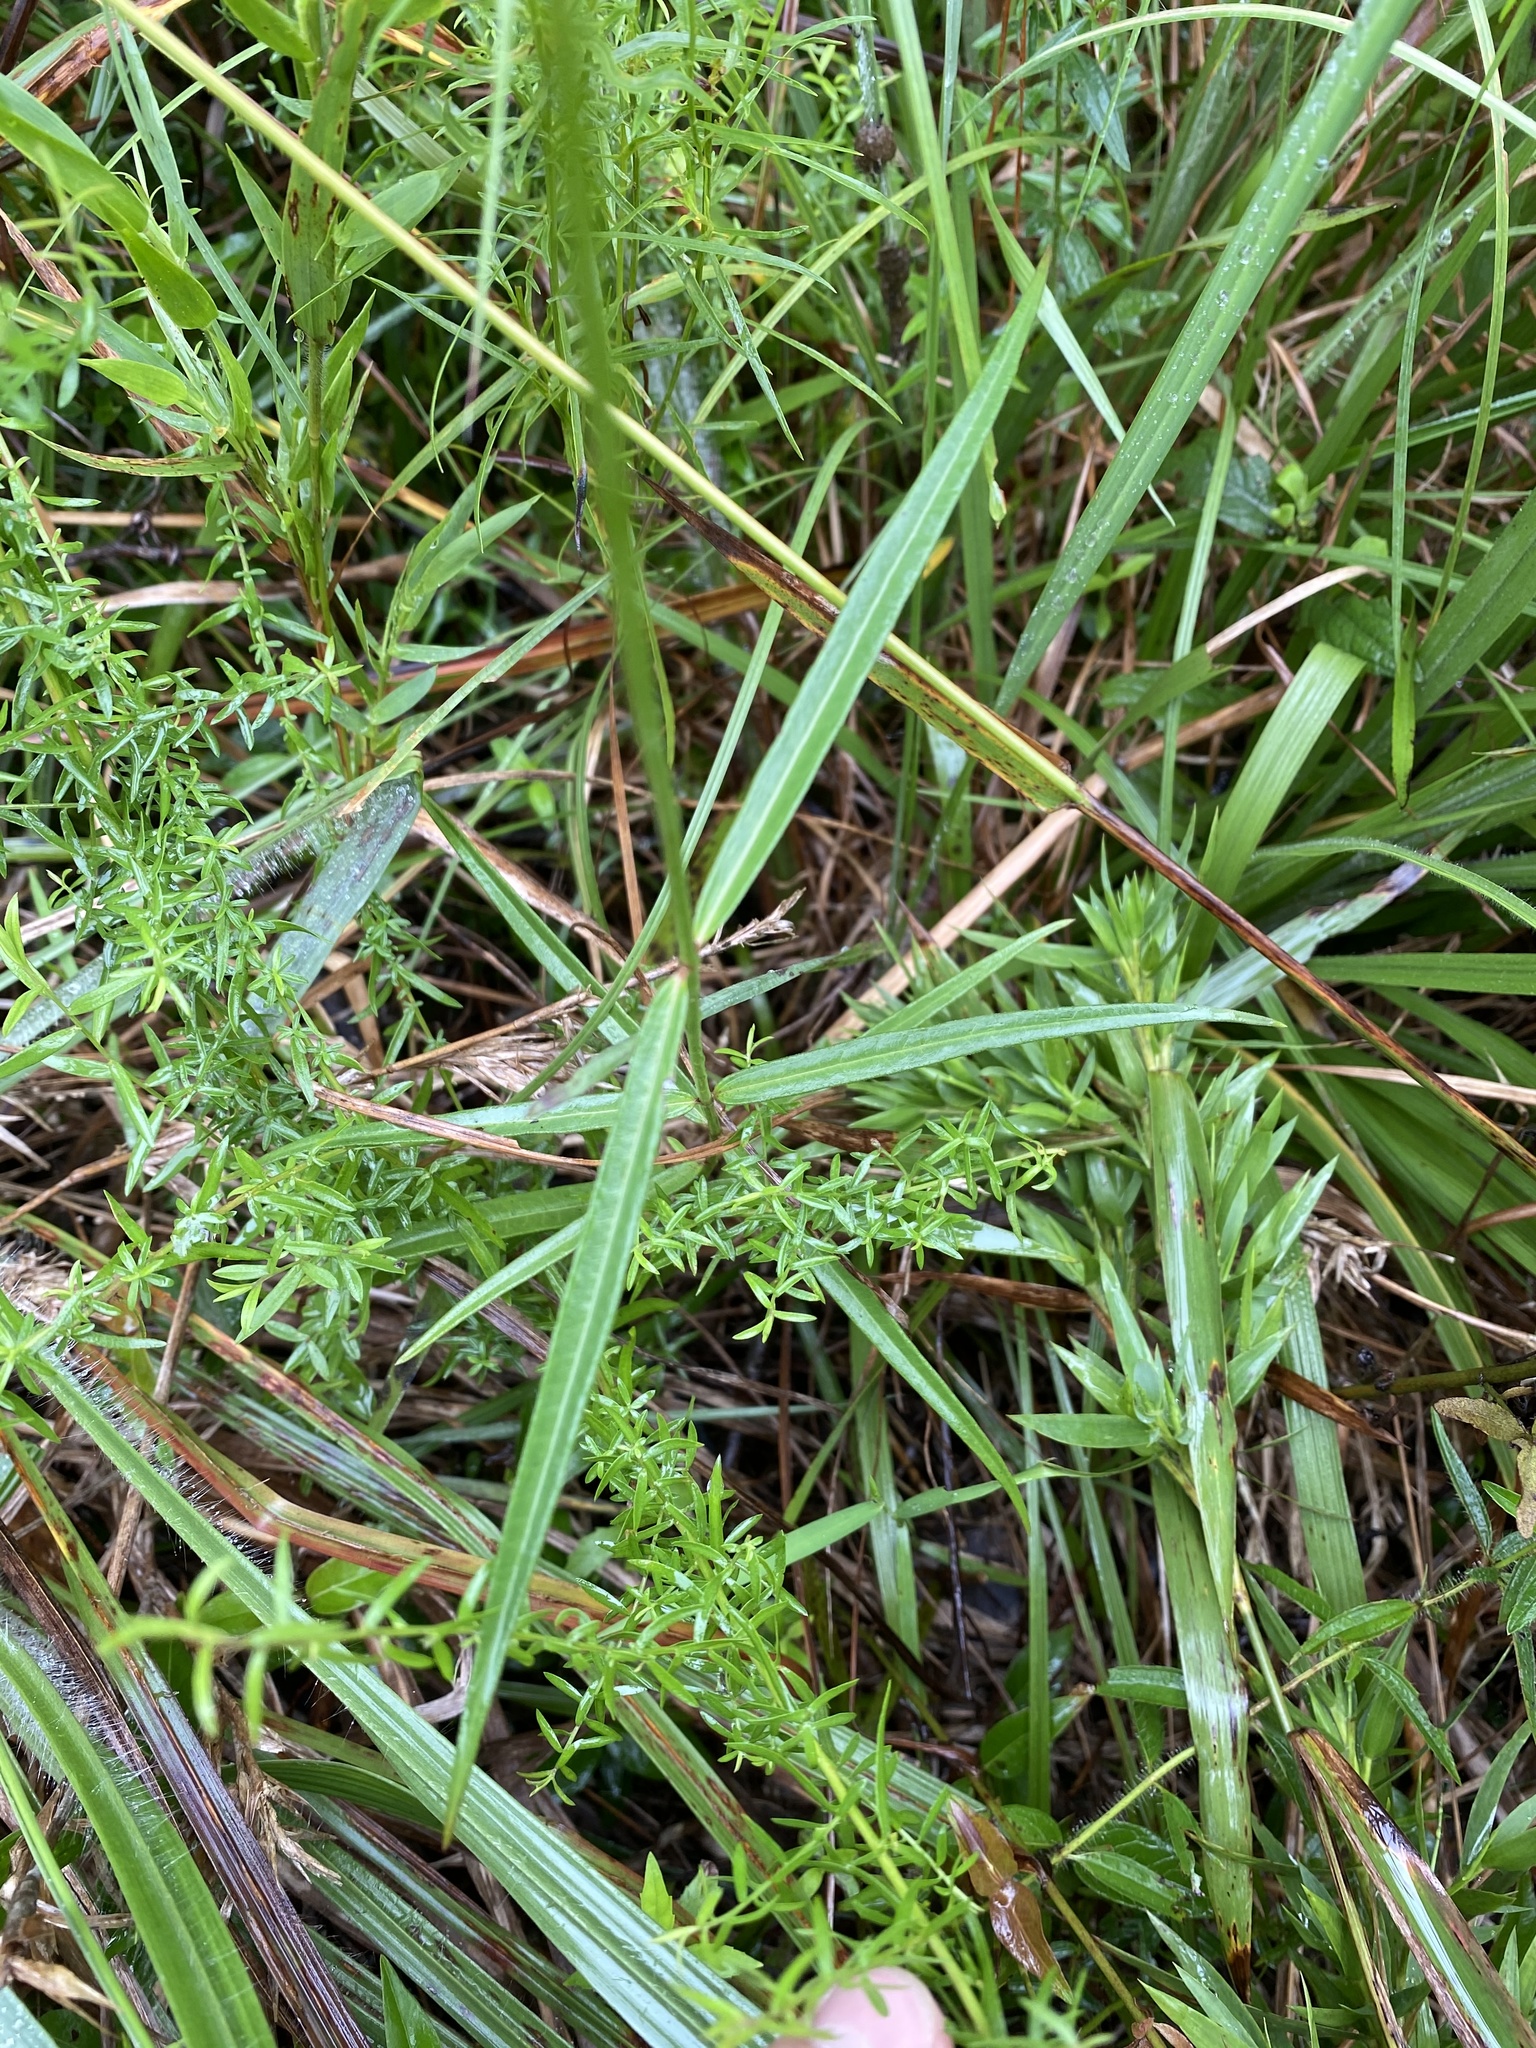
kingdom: Plantae
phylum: Tracheophyta
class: Magnoliopsida
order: Gentianales
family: Apocynaceae
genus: Asclepias
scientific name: Asclepias lanceolata
